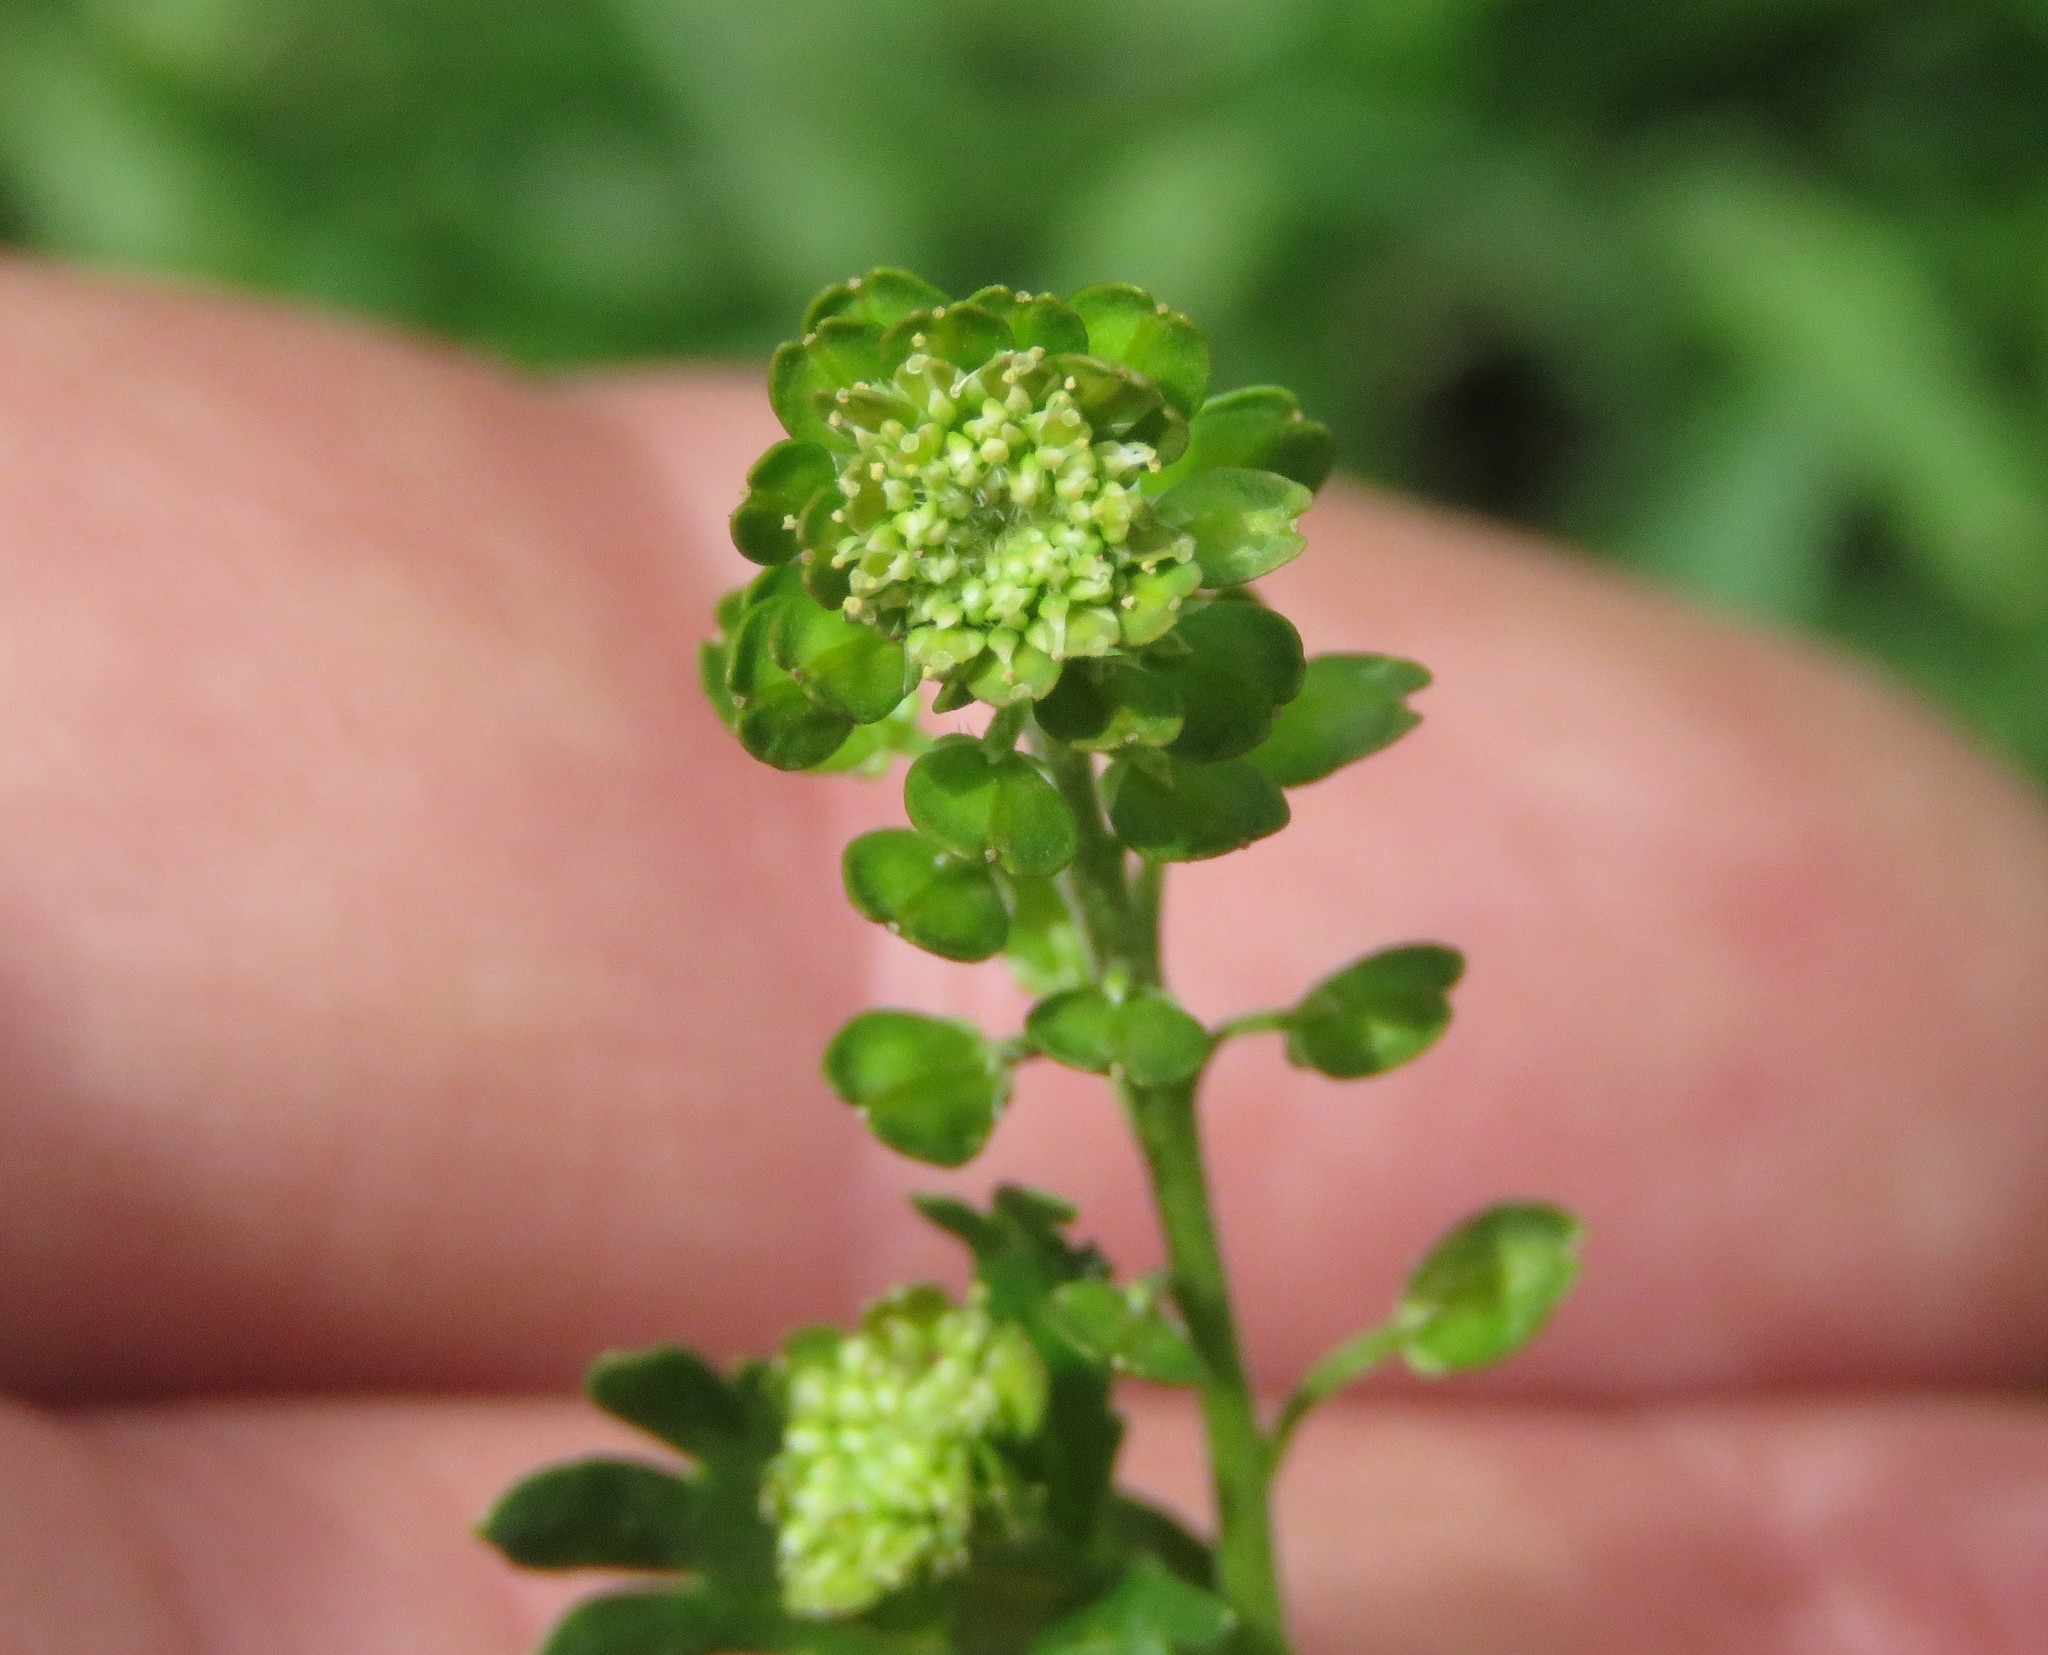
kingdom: Plantae
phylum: Tracheophyta
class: Magnoliopsida
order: Brassicales
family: Brassicaceae
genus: Lepidium
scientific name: Lepidium bipinnatifidum
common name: Wayside pepperwort
